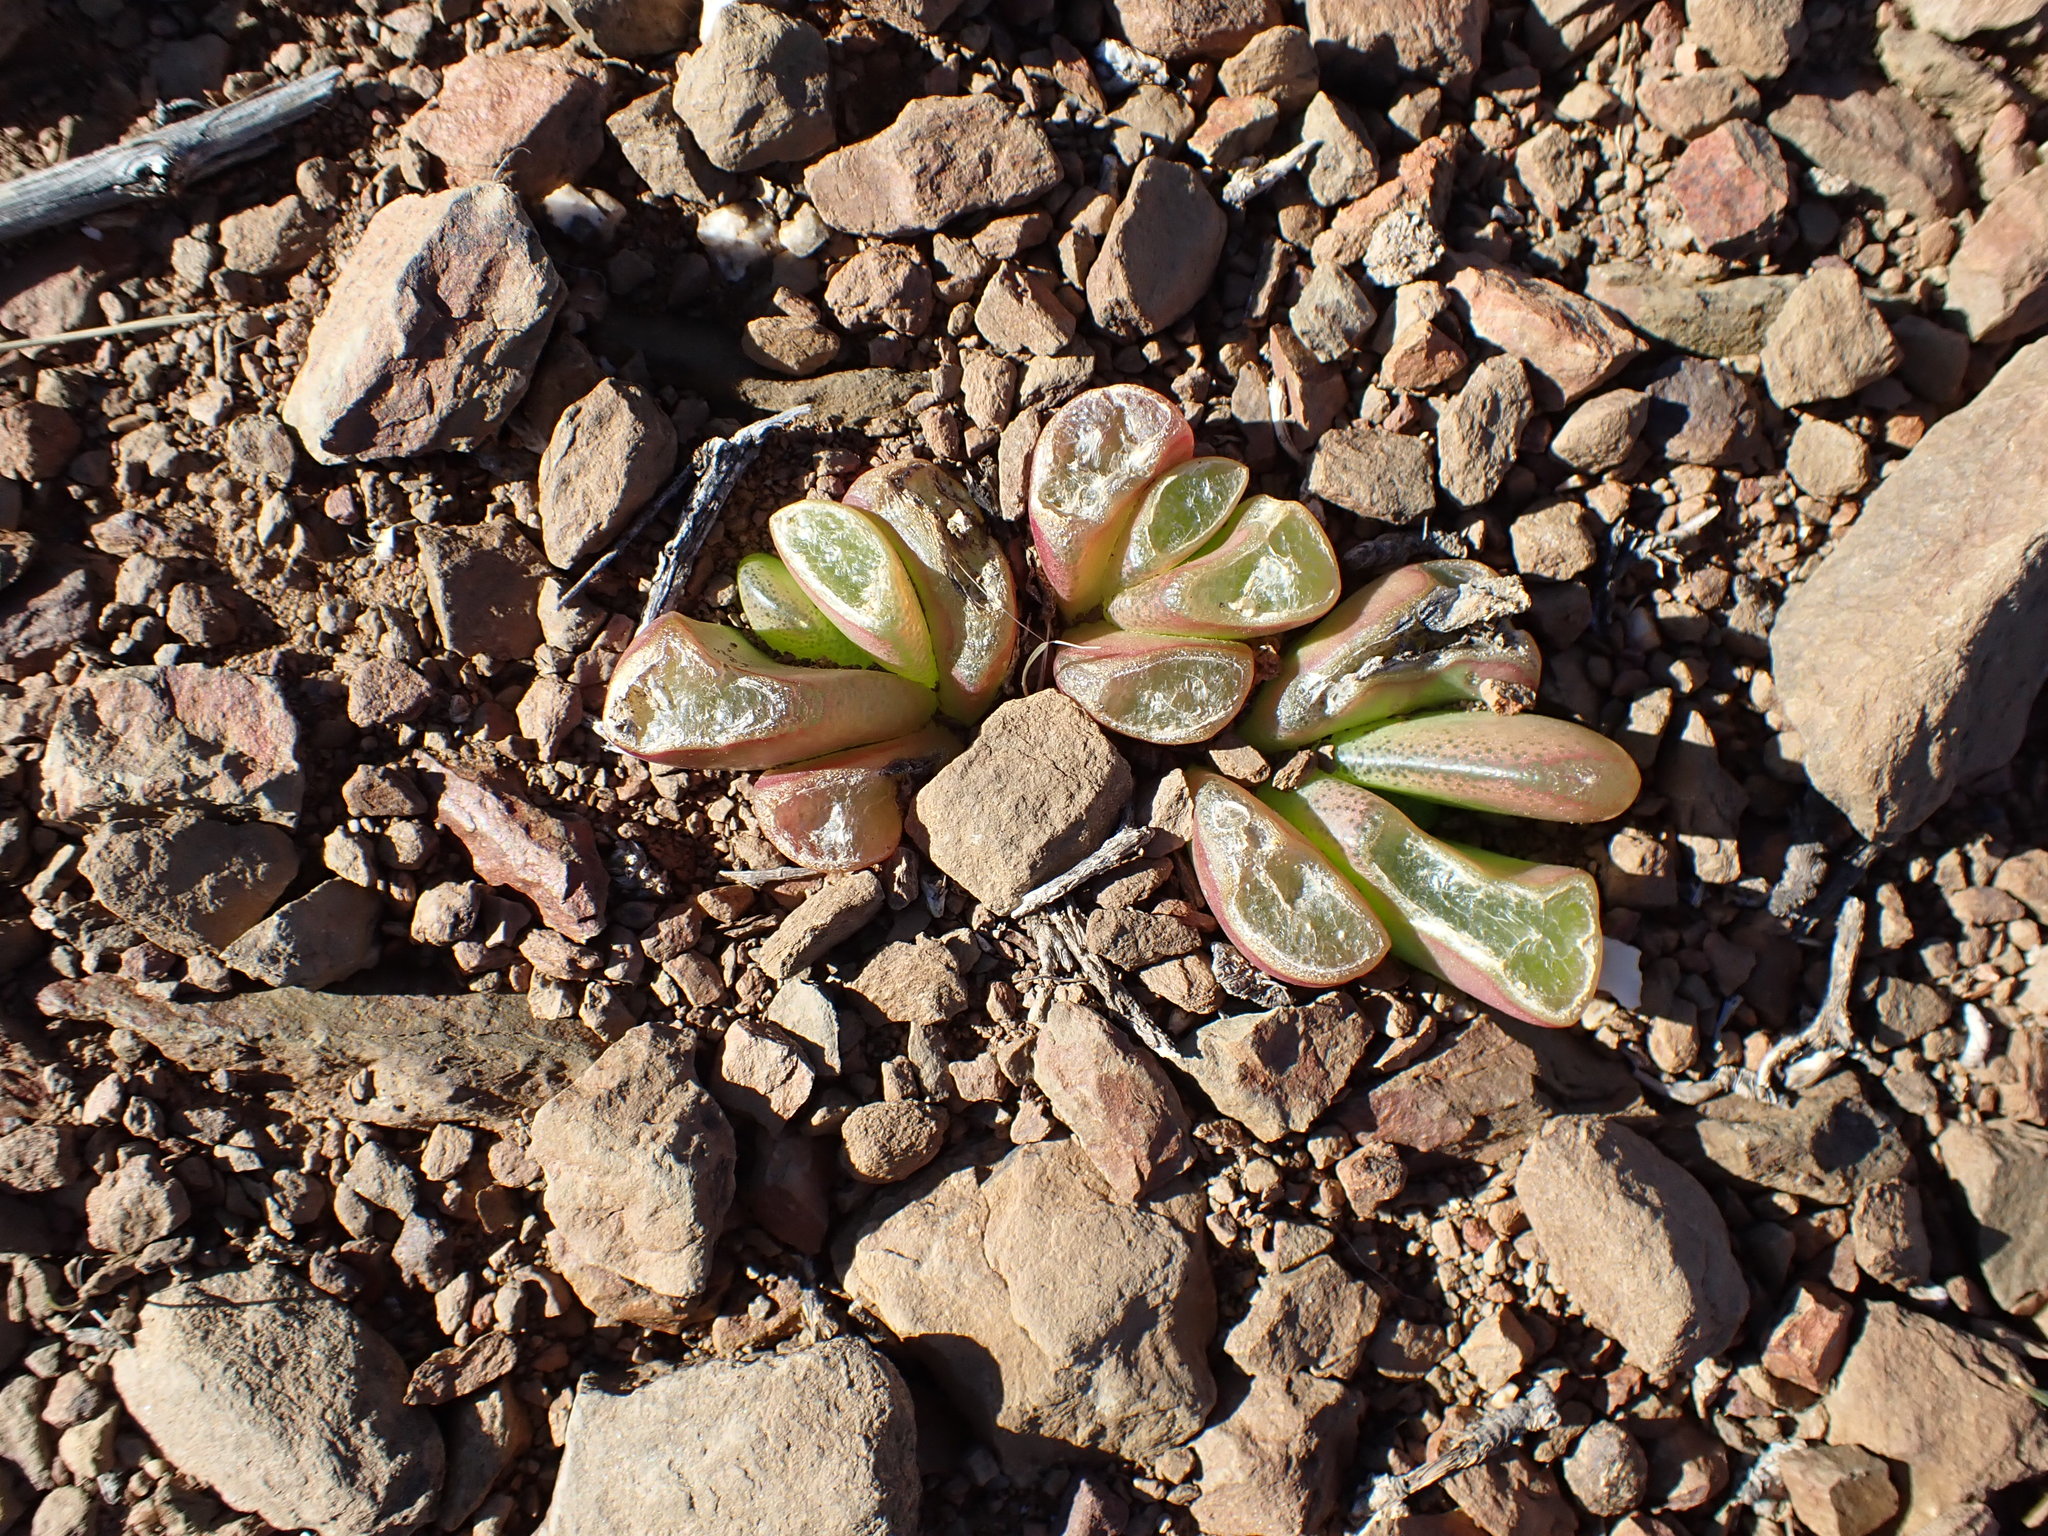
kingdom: Plantae
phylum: Tracheophyta
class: Magnoliopsida
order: Caryophyllales
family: Aizoaceae
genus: Glottiphyllum
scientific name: Glottiphyllum nelii
